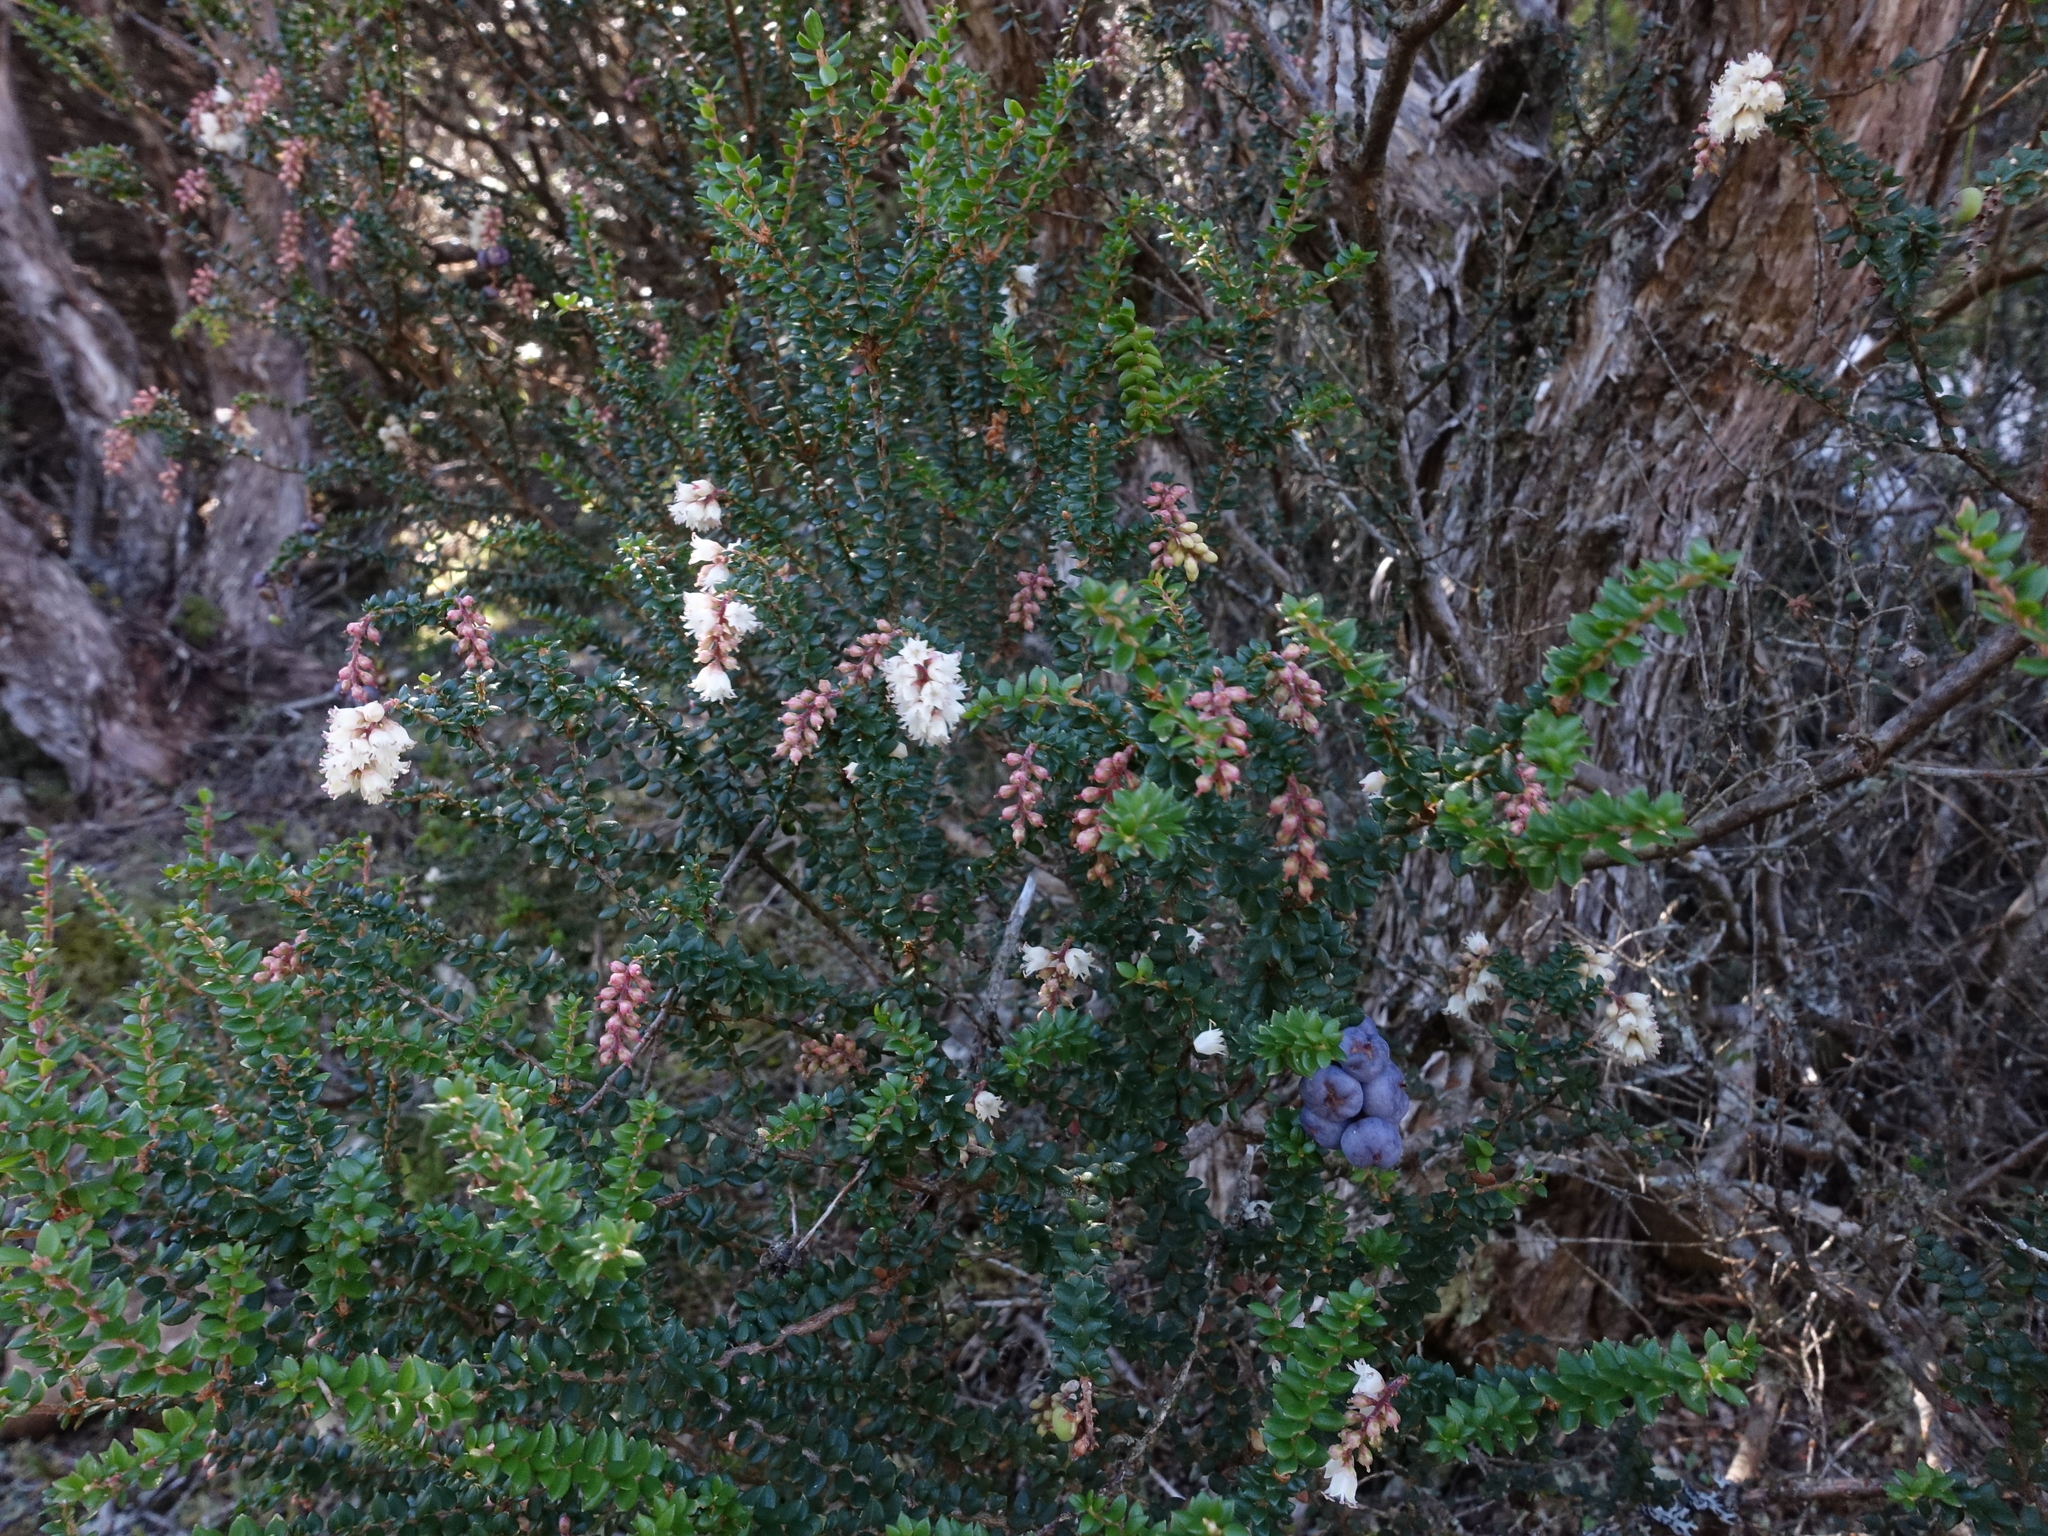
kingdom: Plantae
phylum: Tracheophyta
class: Magnoliopsida
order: Ericales
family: Ericaceae
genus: Trochocarpa
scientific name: Trochocarpa thymifolia
